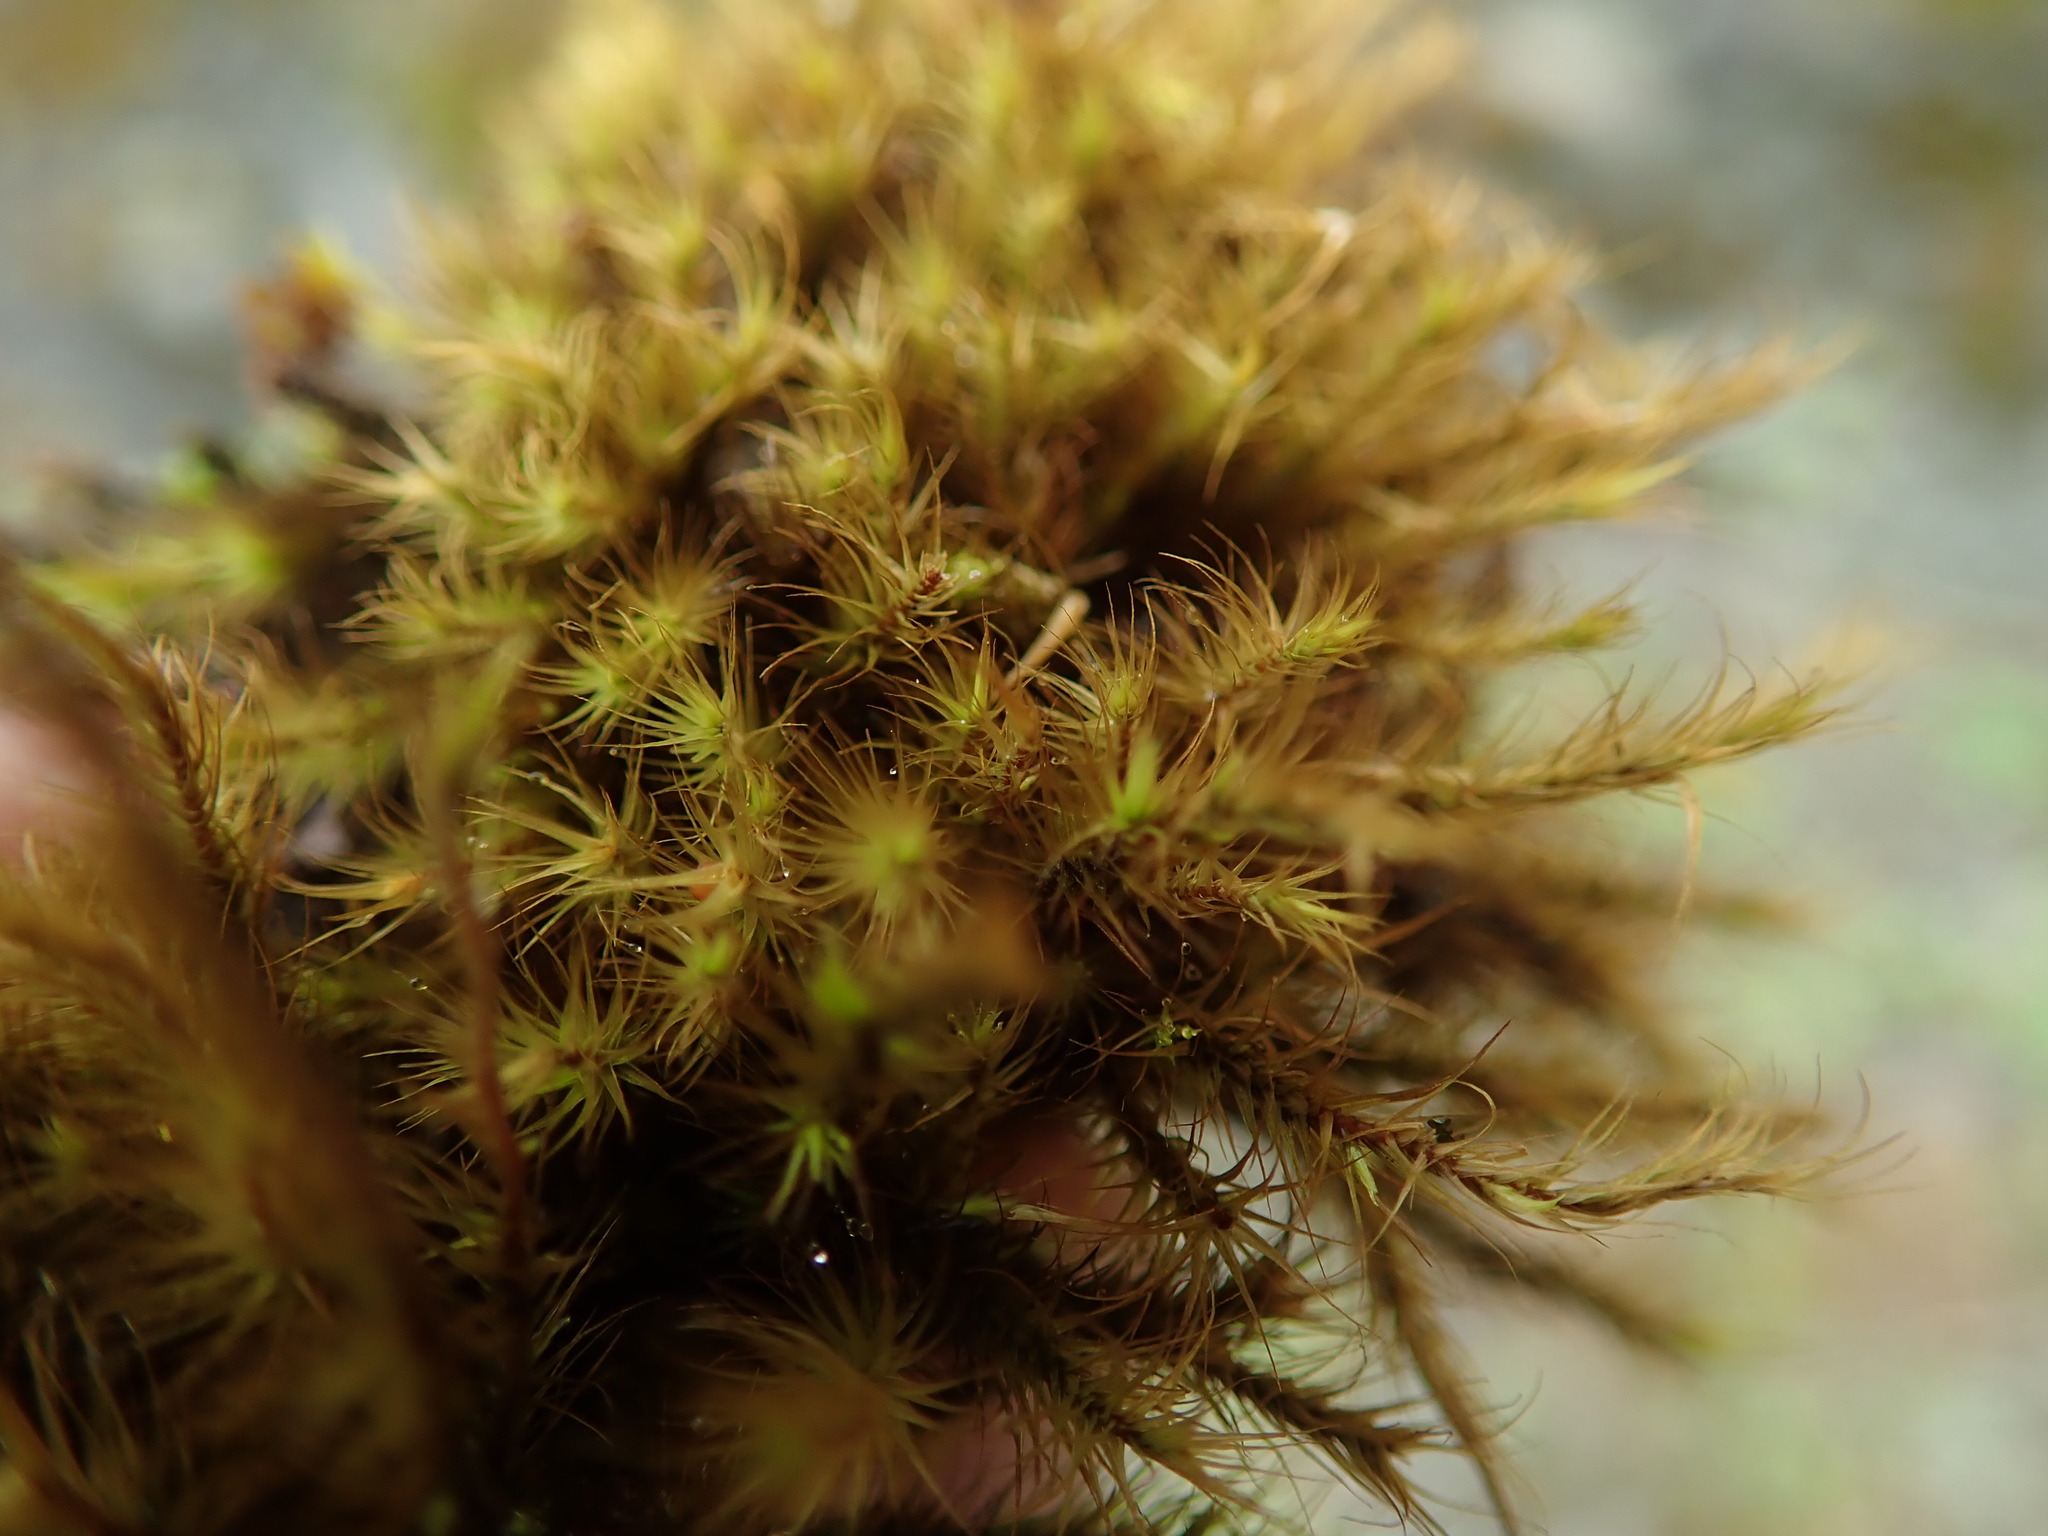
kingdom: Plantae
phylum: Bryophyta
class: Bryopsida
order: Bartramiales
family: Bartramiaceae
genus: Anacolia
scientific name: Anacolia menziesii
